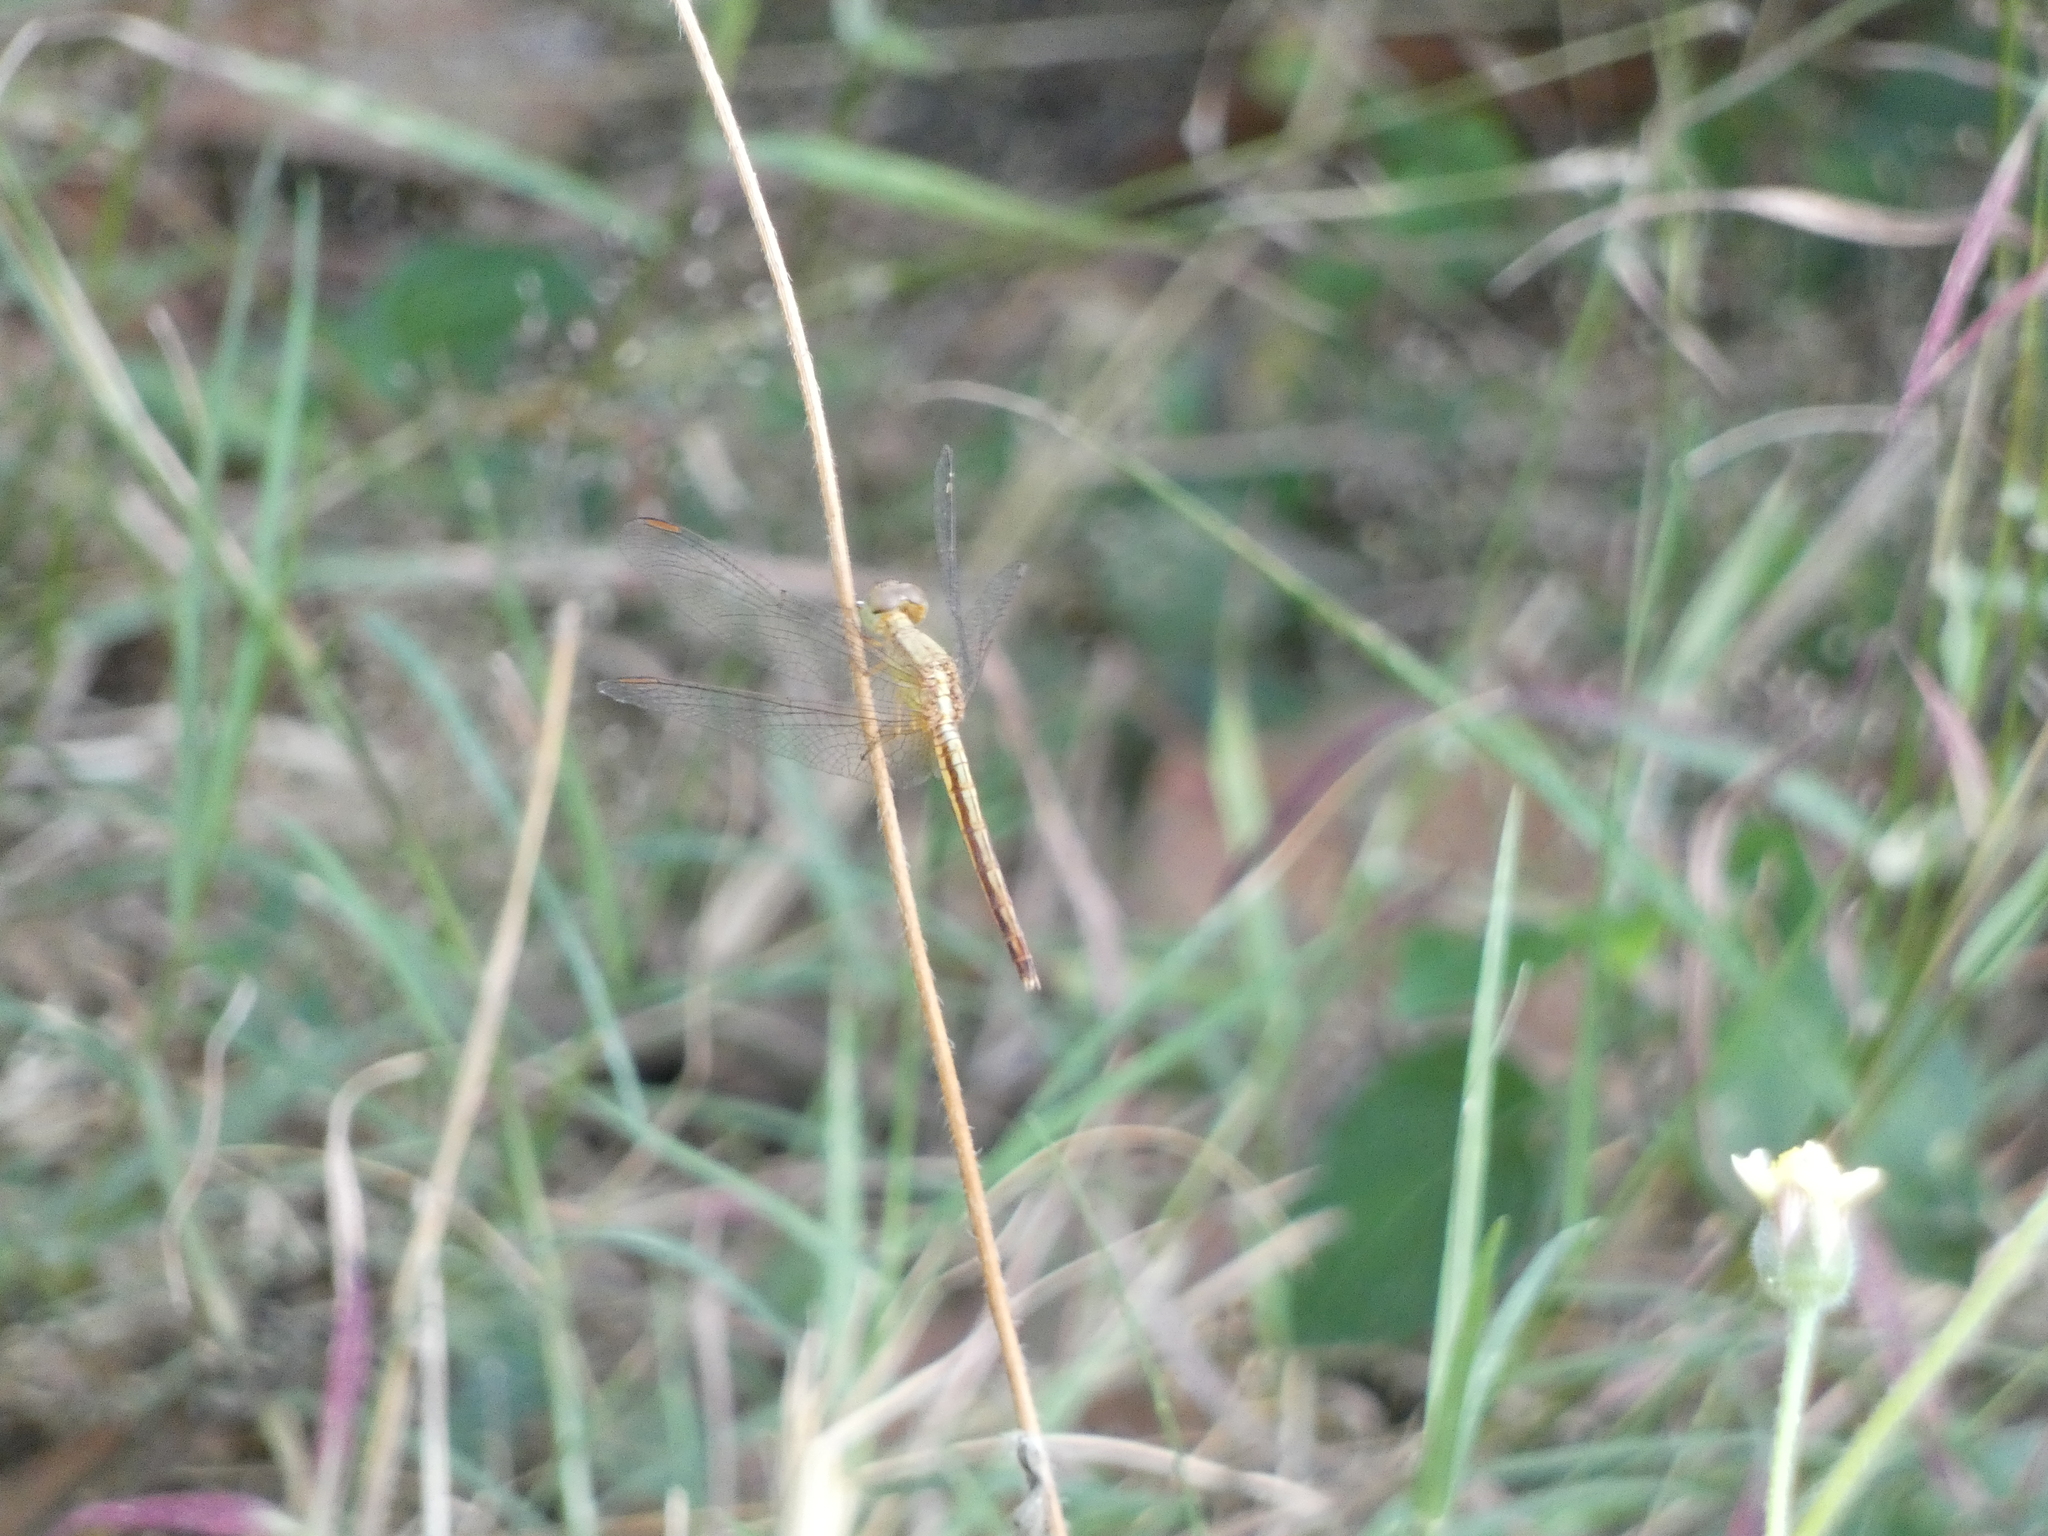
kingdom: Animalia
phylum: Arthropoda
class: Insecta
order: Odonata
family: Libellulidae
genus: Neurothemis
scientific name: Neurothemis intermedia
